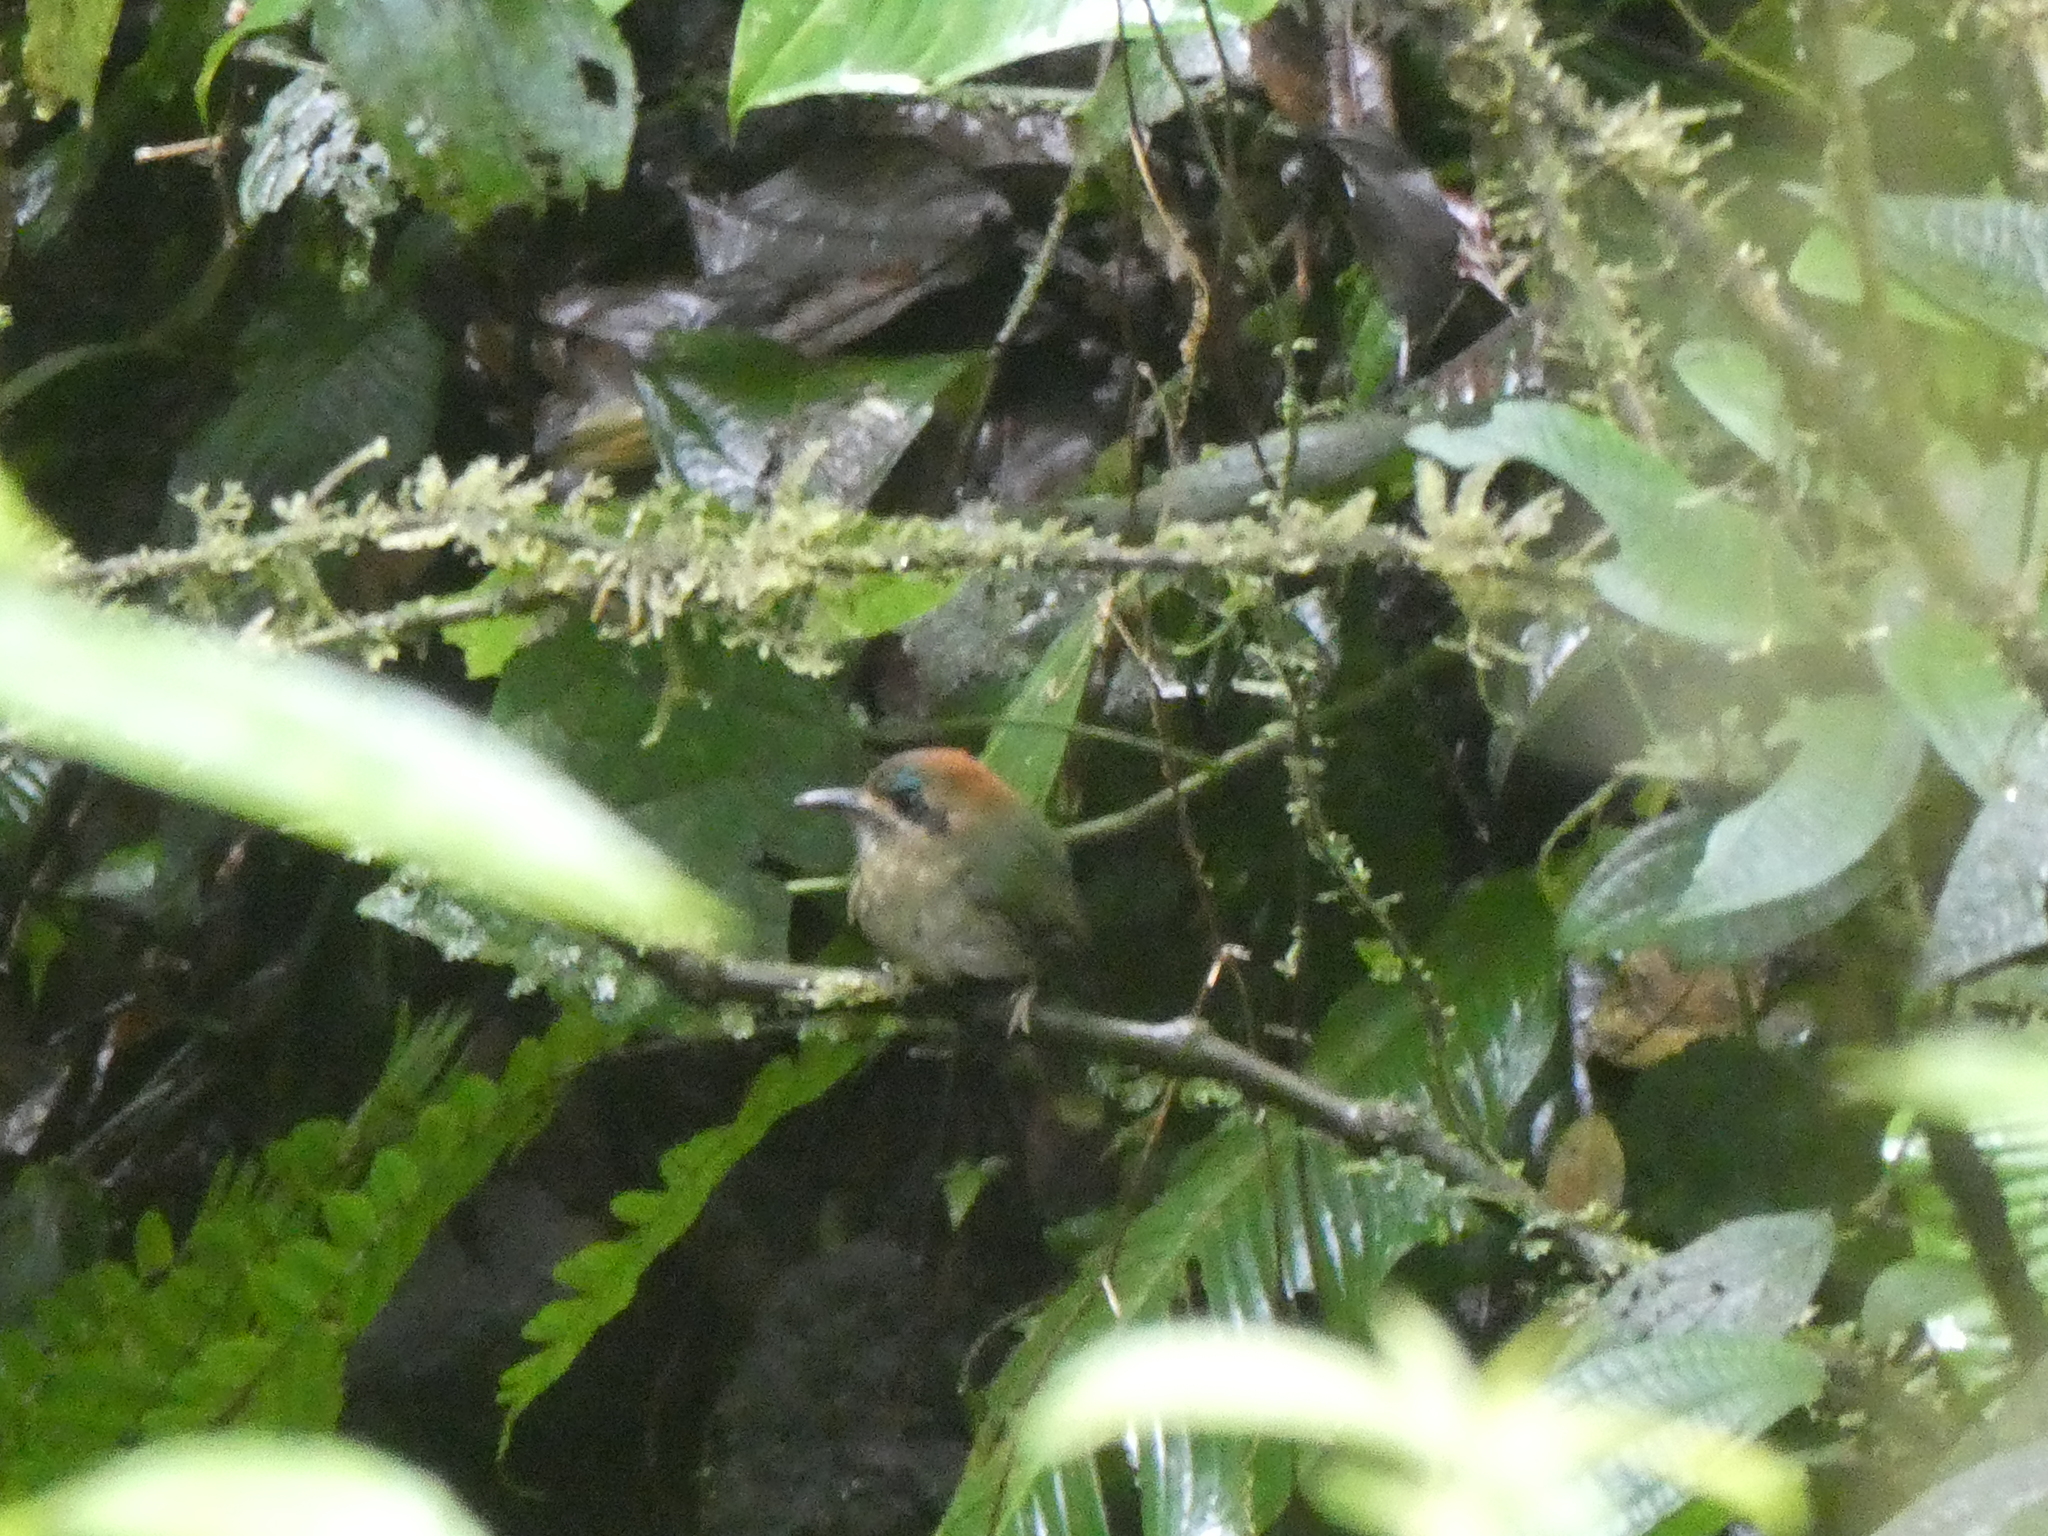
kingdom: Animalia
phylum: Chordata
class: Aves
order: Coraciiformes
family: Momotidae
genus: Hylomanes
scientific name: Hylomanes momotula
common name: Tody motmot
